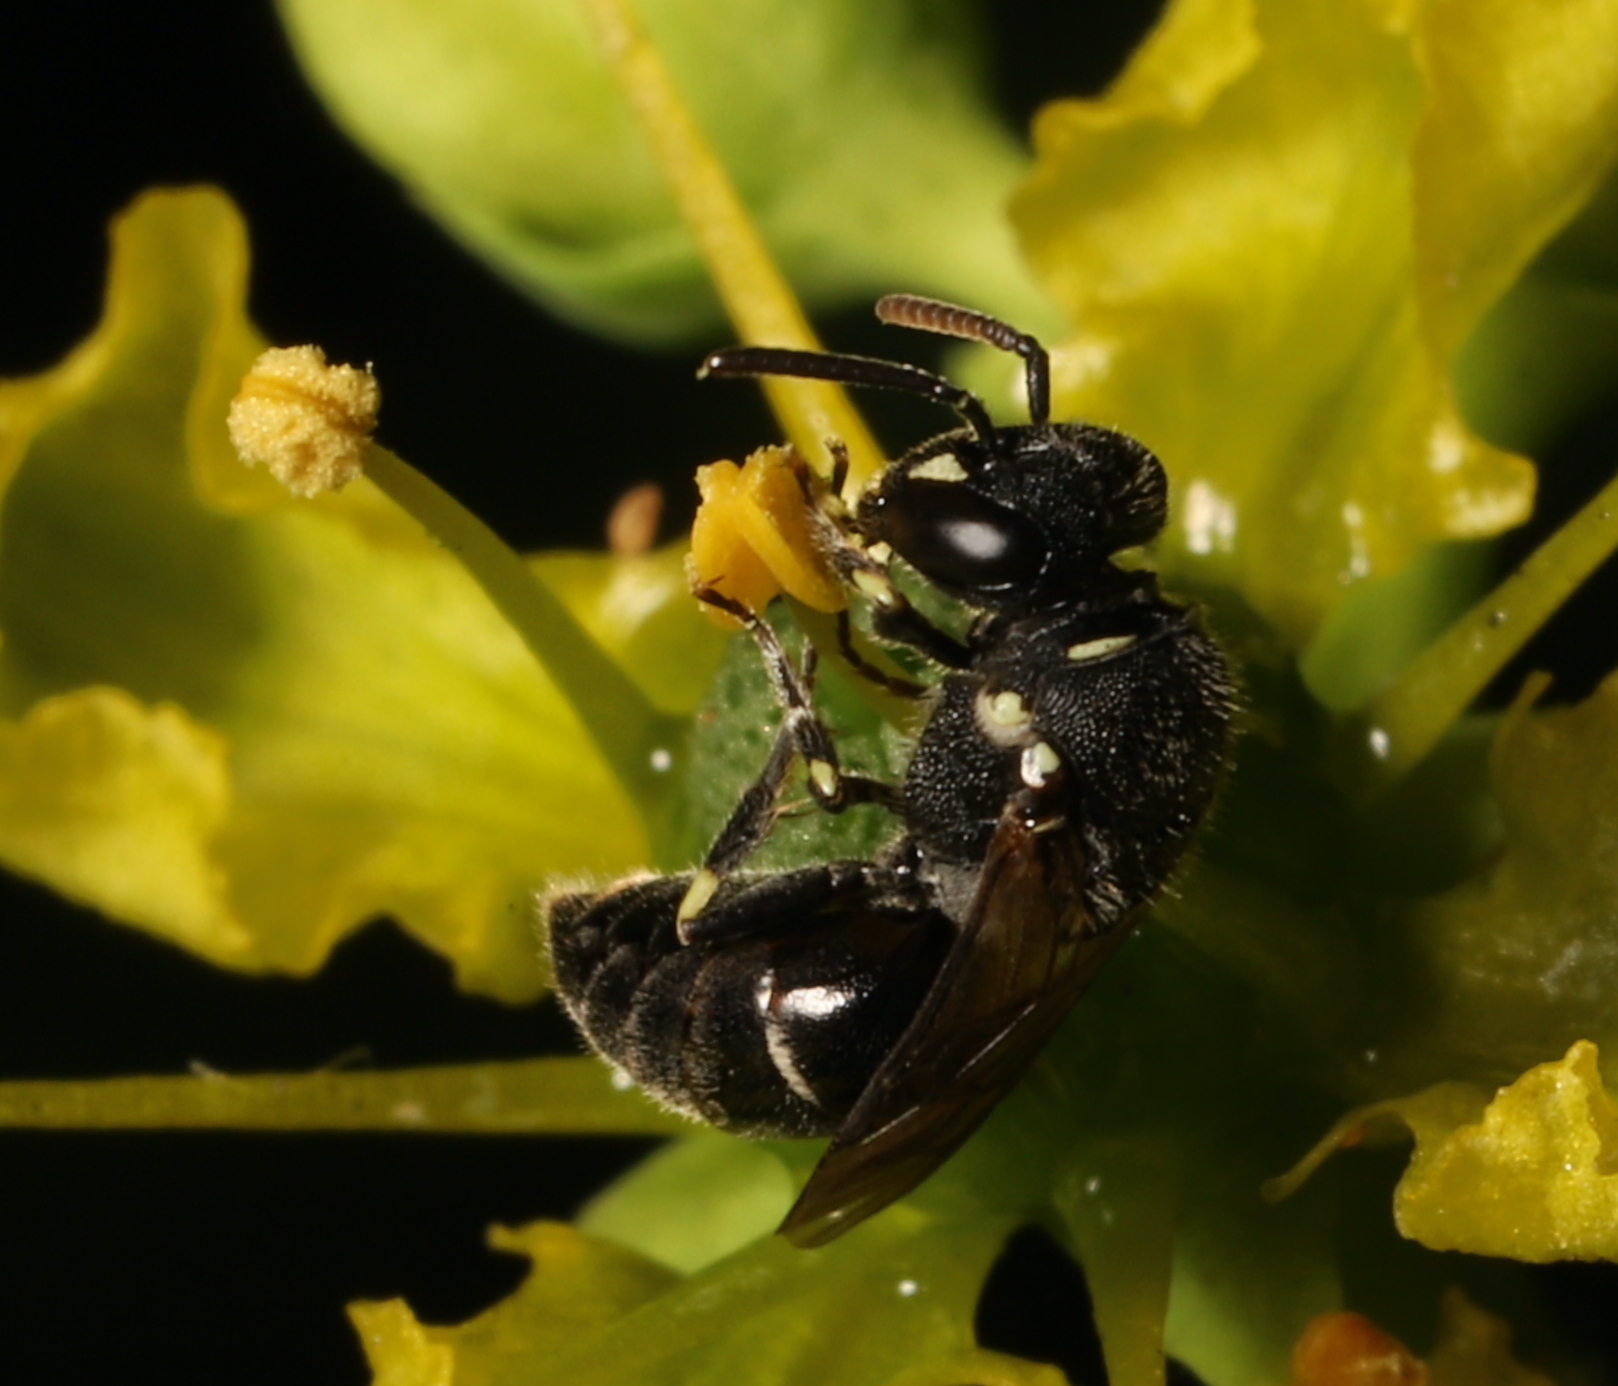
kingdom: Animalia
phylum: Arthropoda
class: Insecta
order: Hymenoptera
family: Colletidae
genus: Hylaeus
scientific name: Hylaeus
